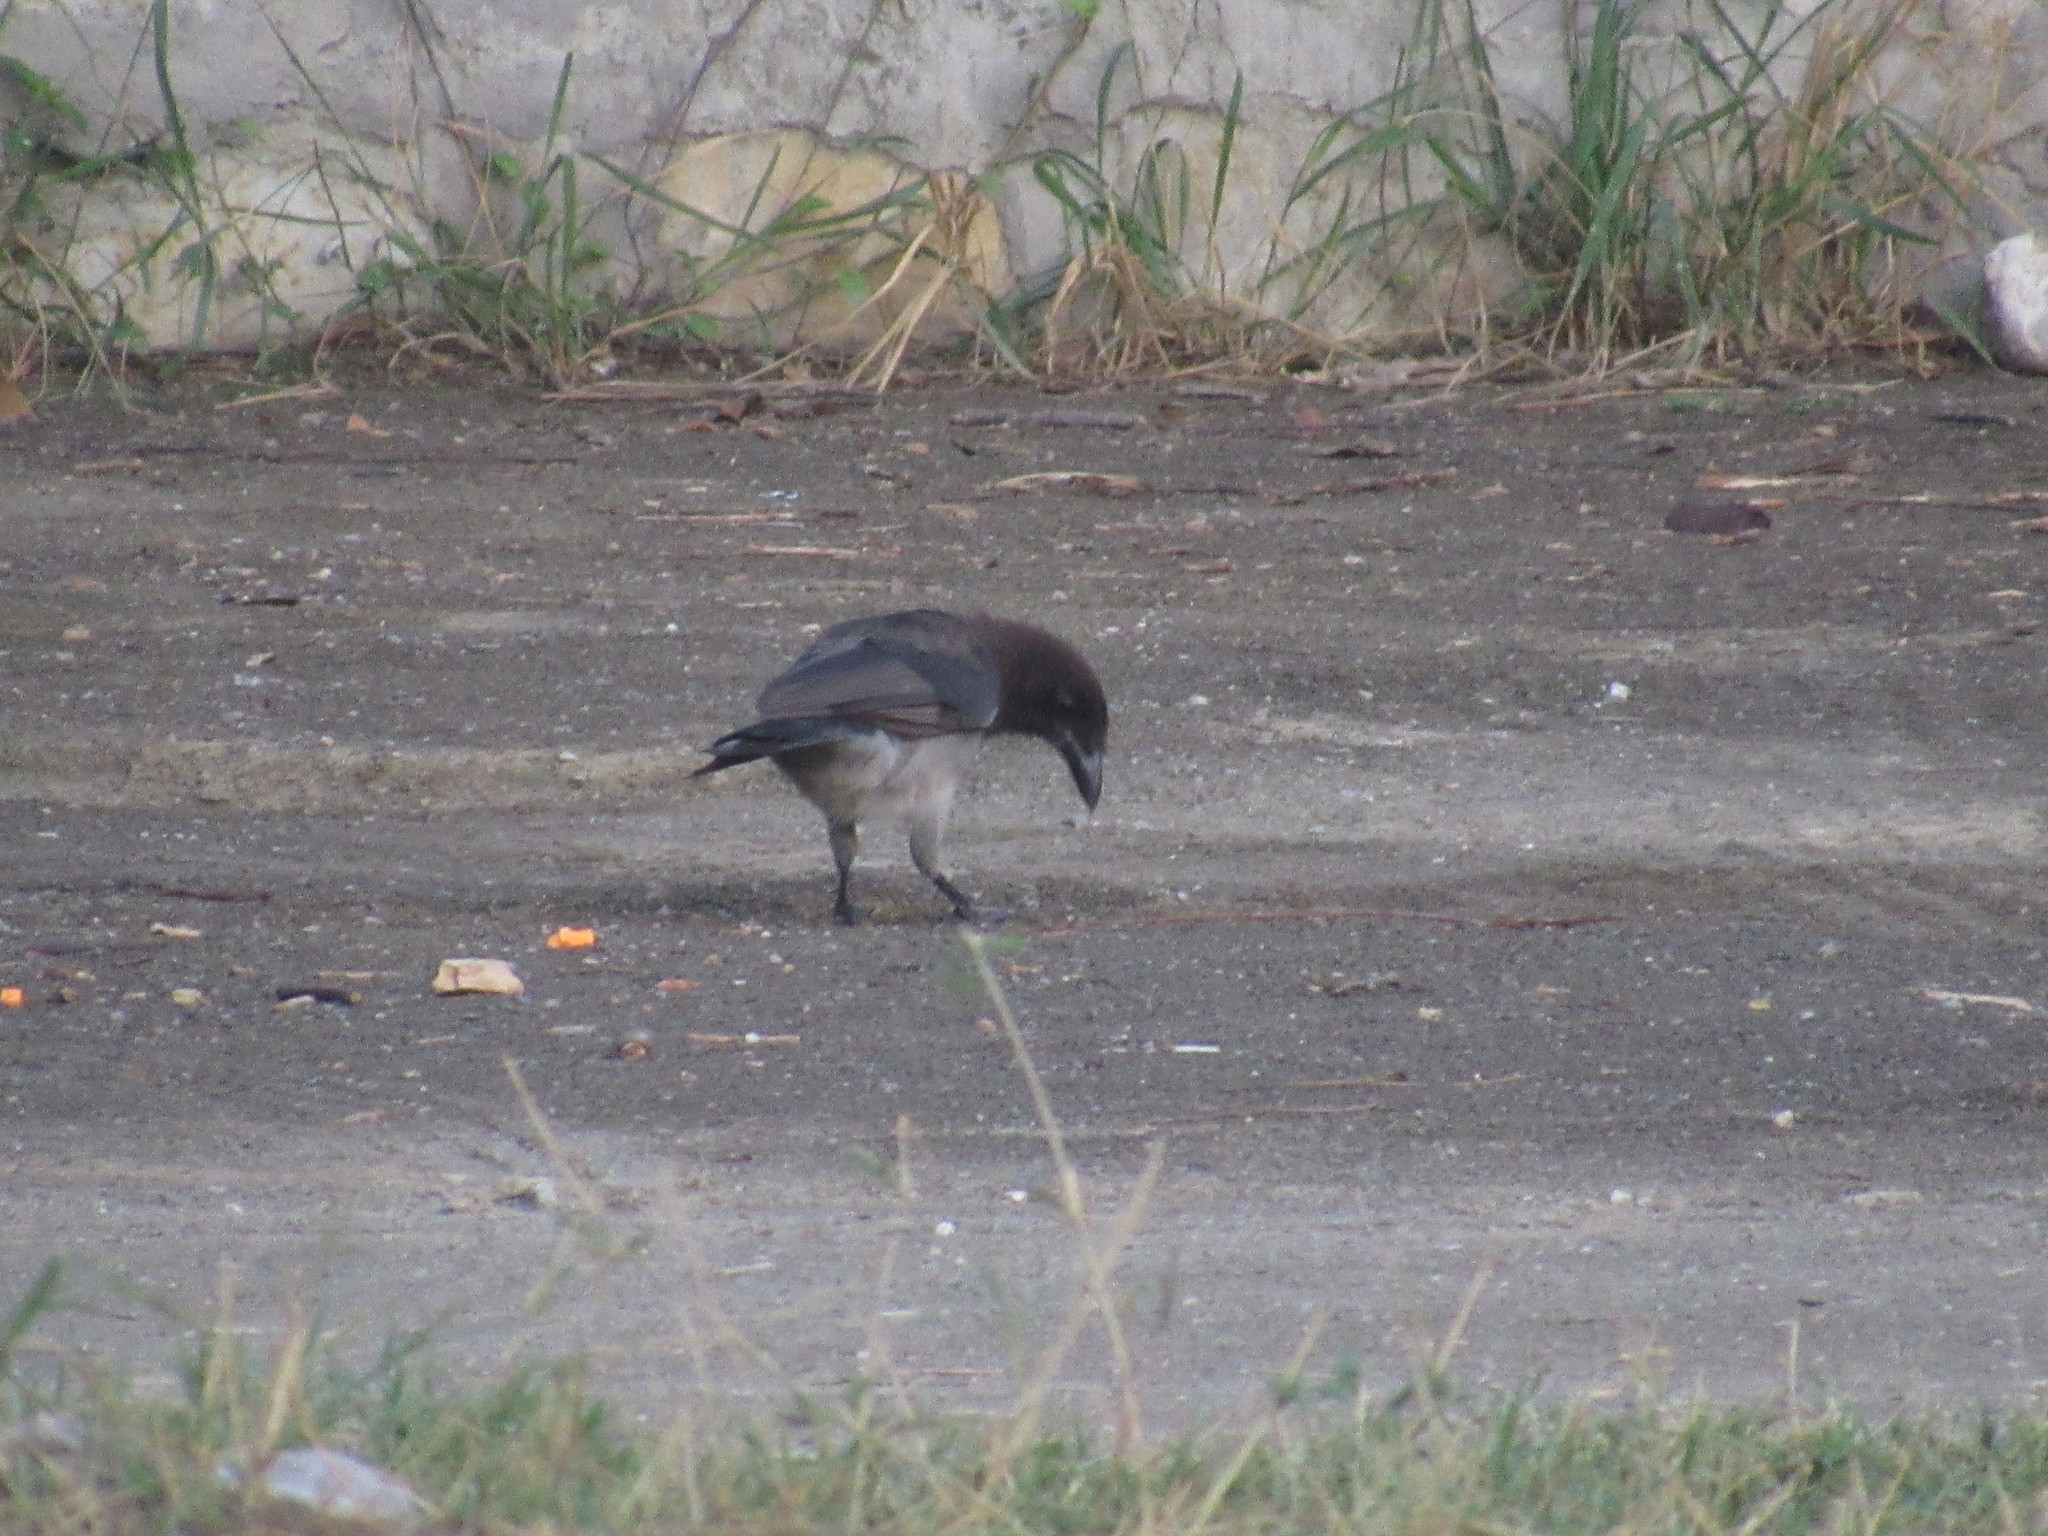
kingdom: Animalia
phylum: Chordata
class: Aves
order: Passeriformes
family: Corvidae
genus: Psilorhinus
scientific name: Psilorhinus morio
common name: Brown jay
